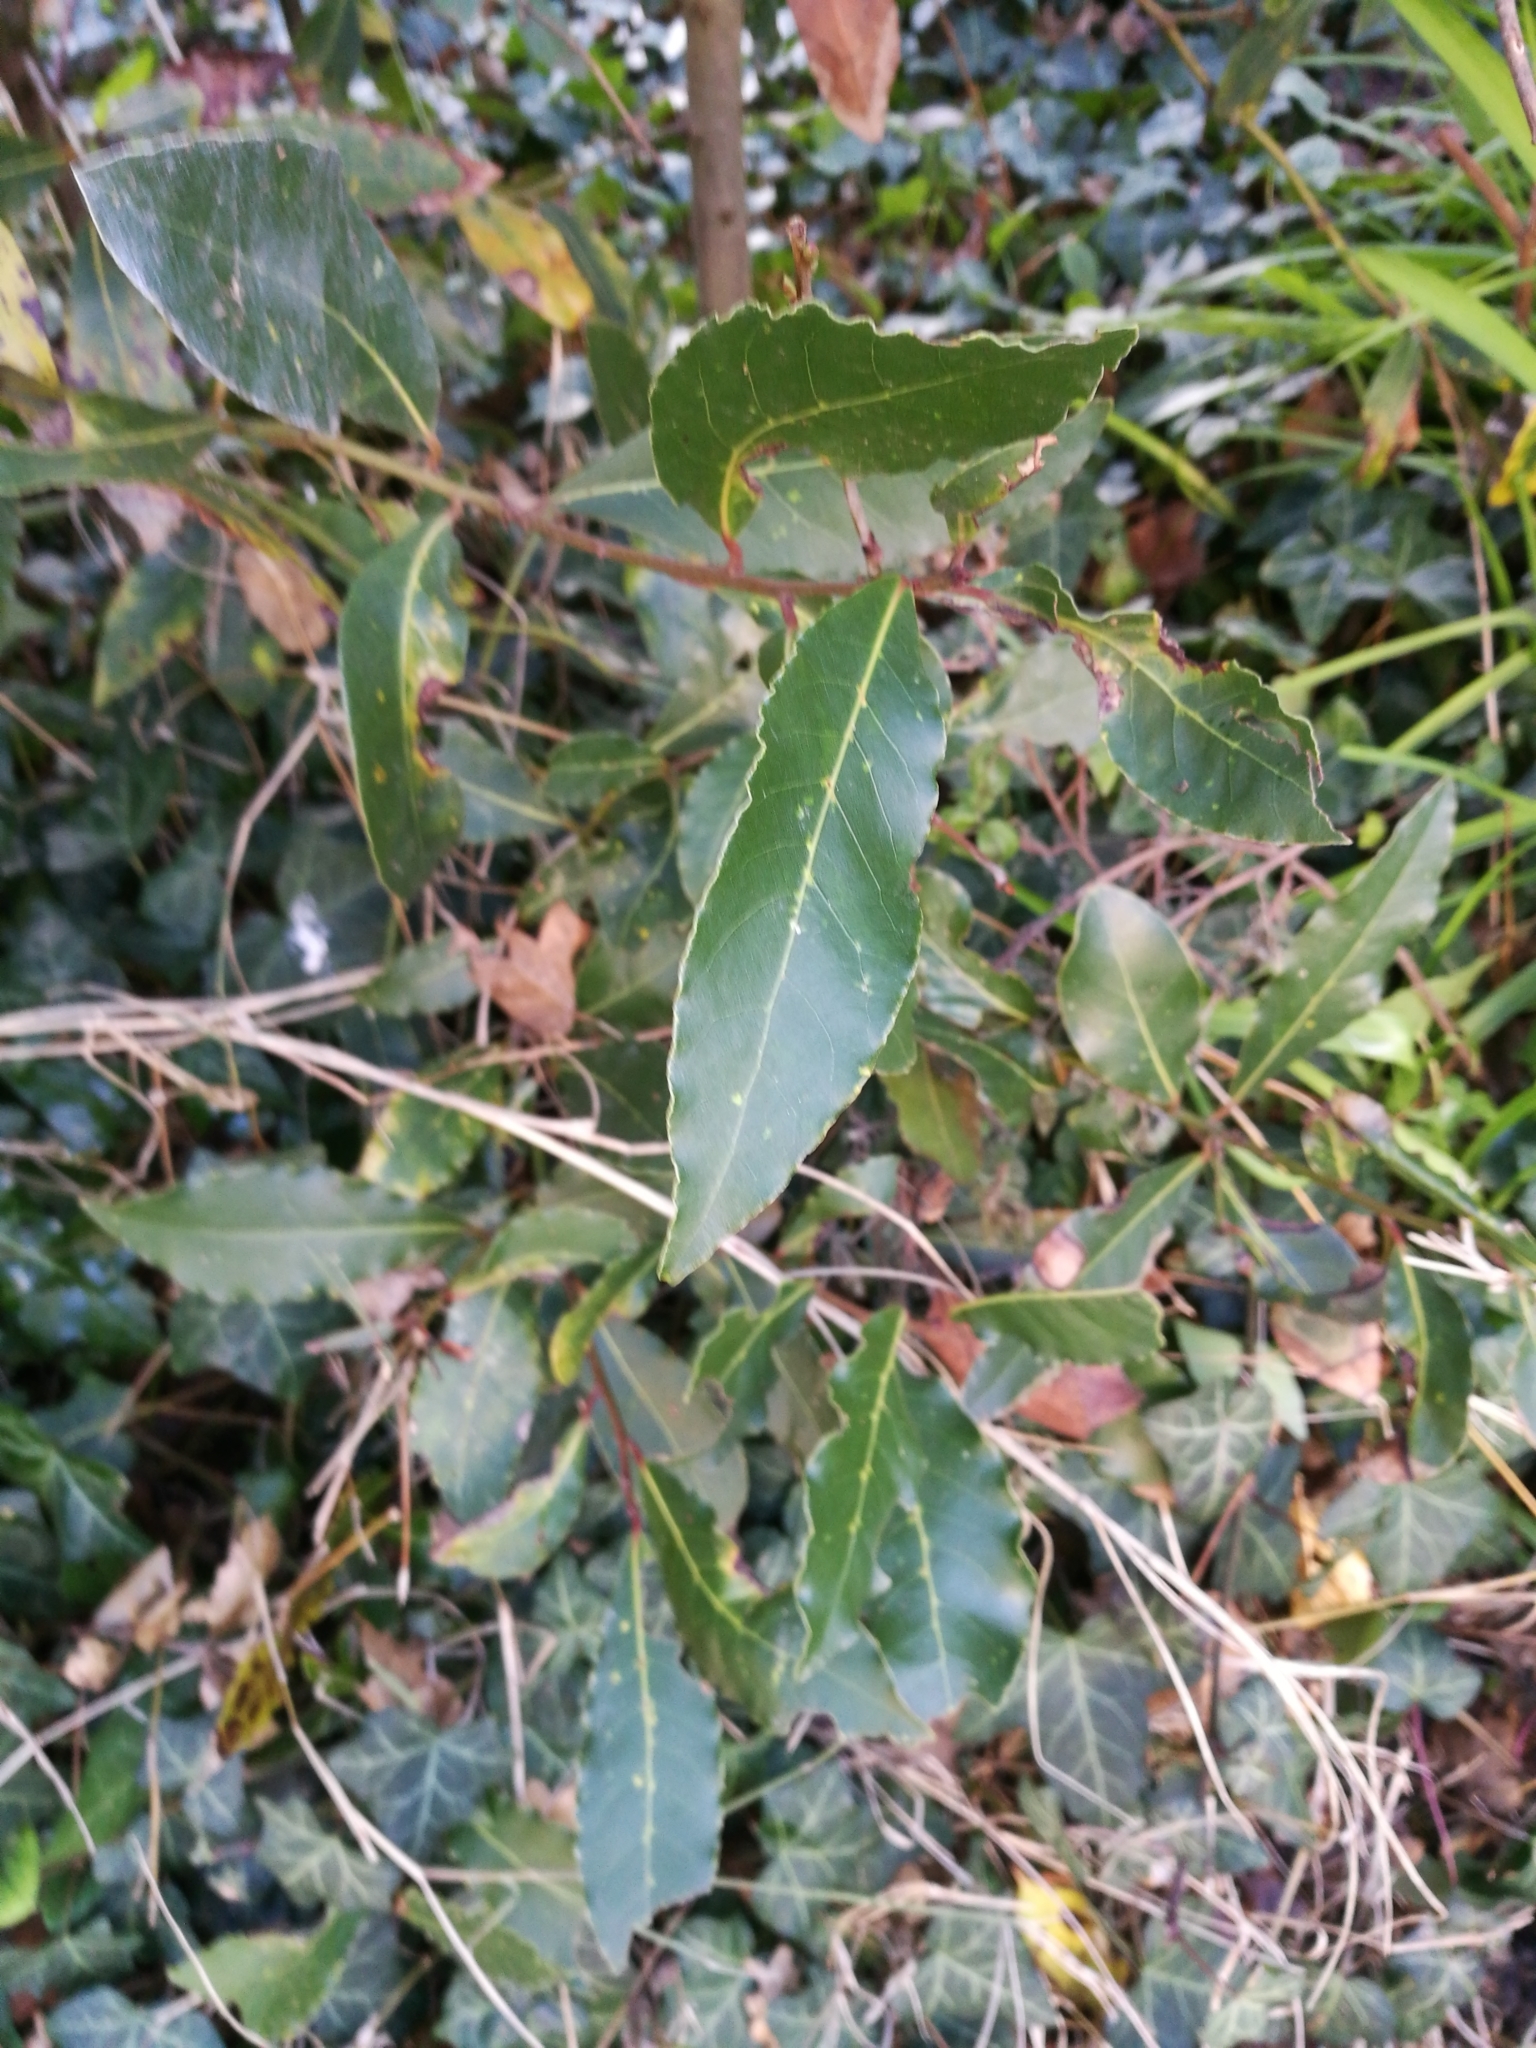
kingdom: Plantae
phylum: Tracheophyta
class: Magnoliopsida
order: Laurales
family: Lauraceae
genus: Laurus
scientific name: Laurus nobilis
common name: Bay
